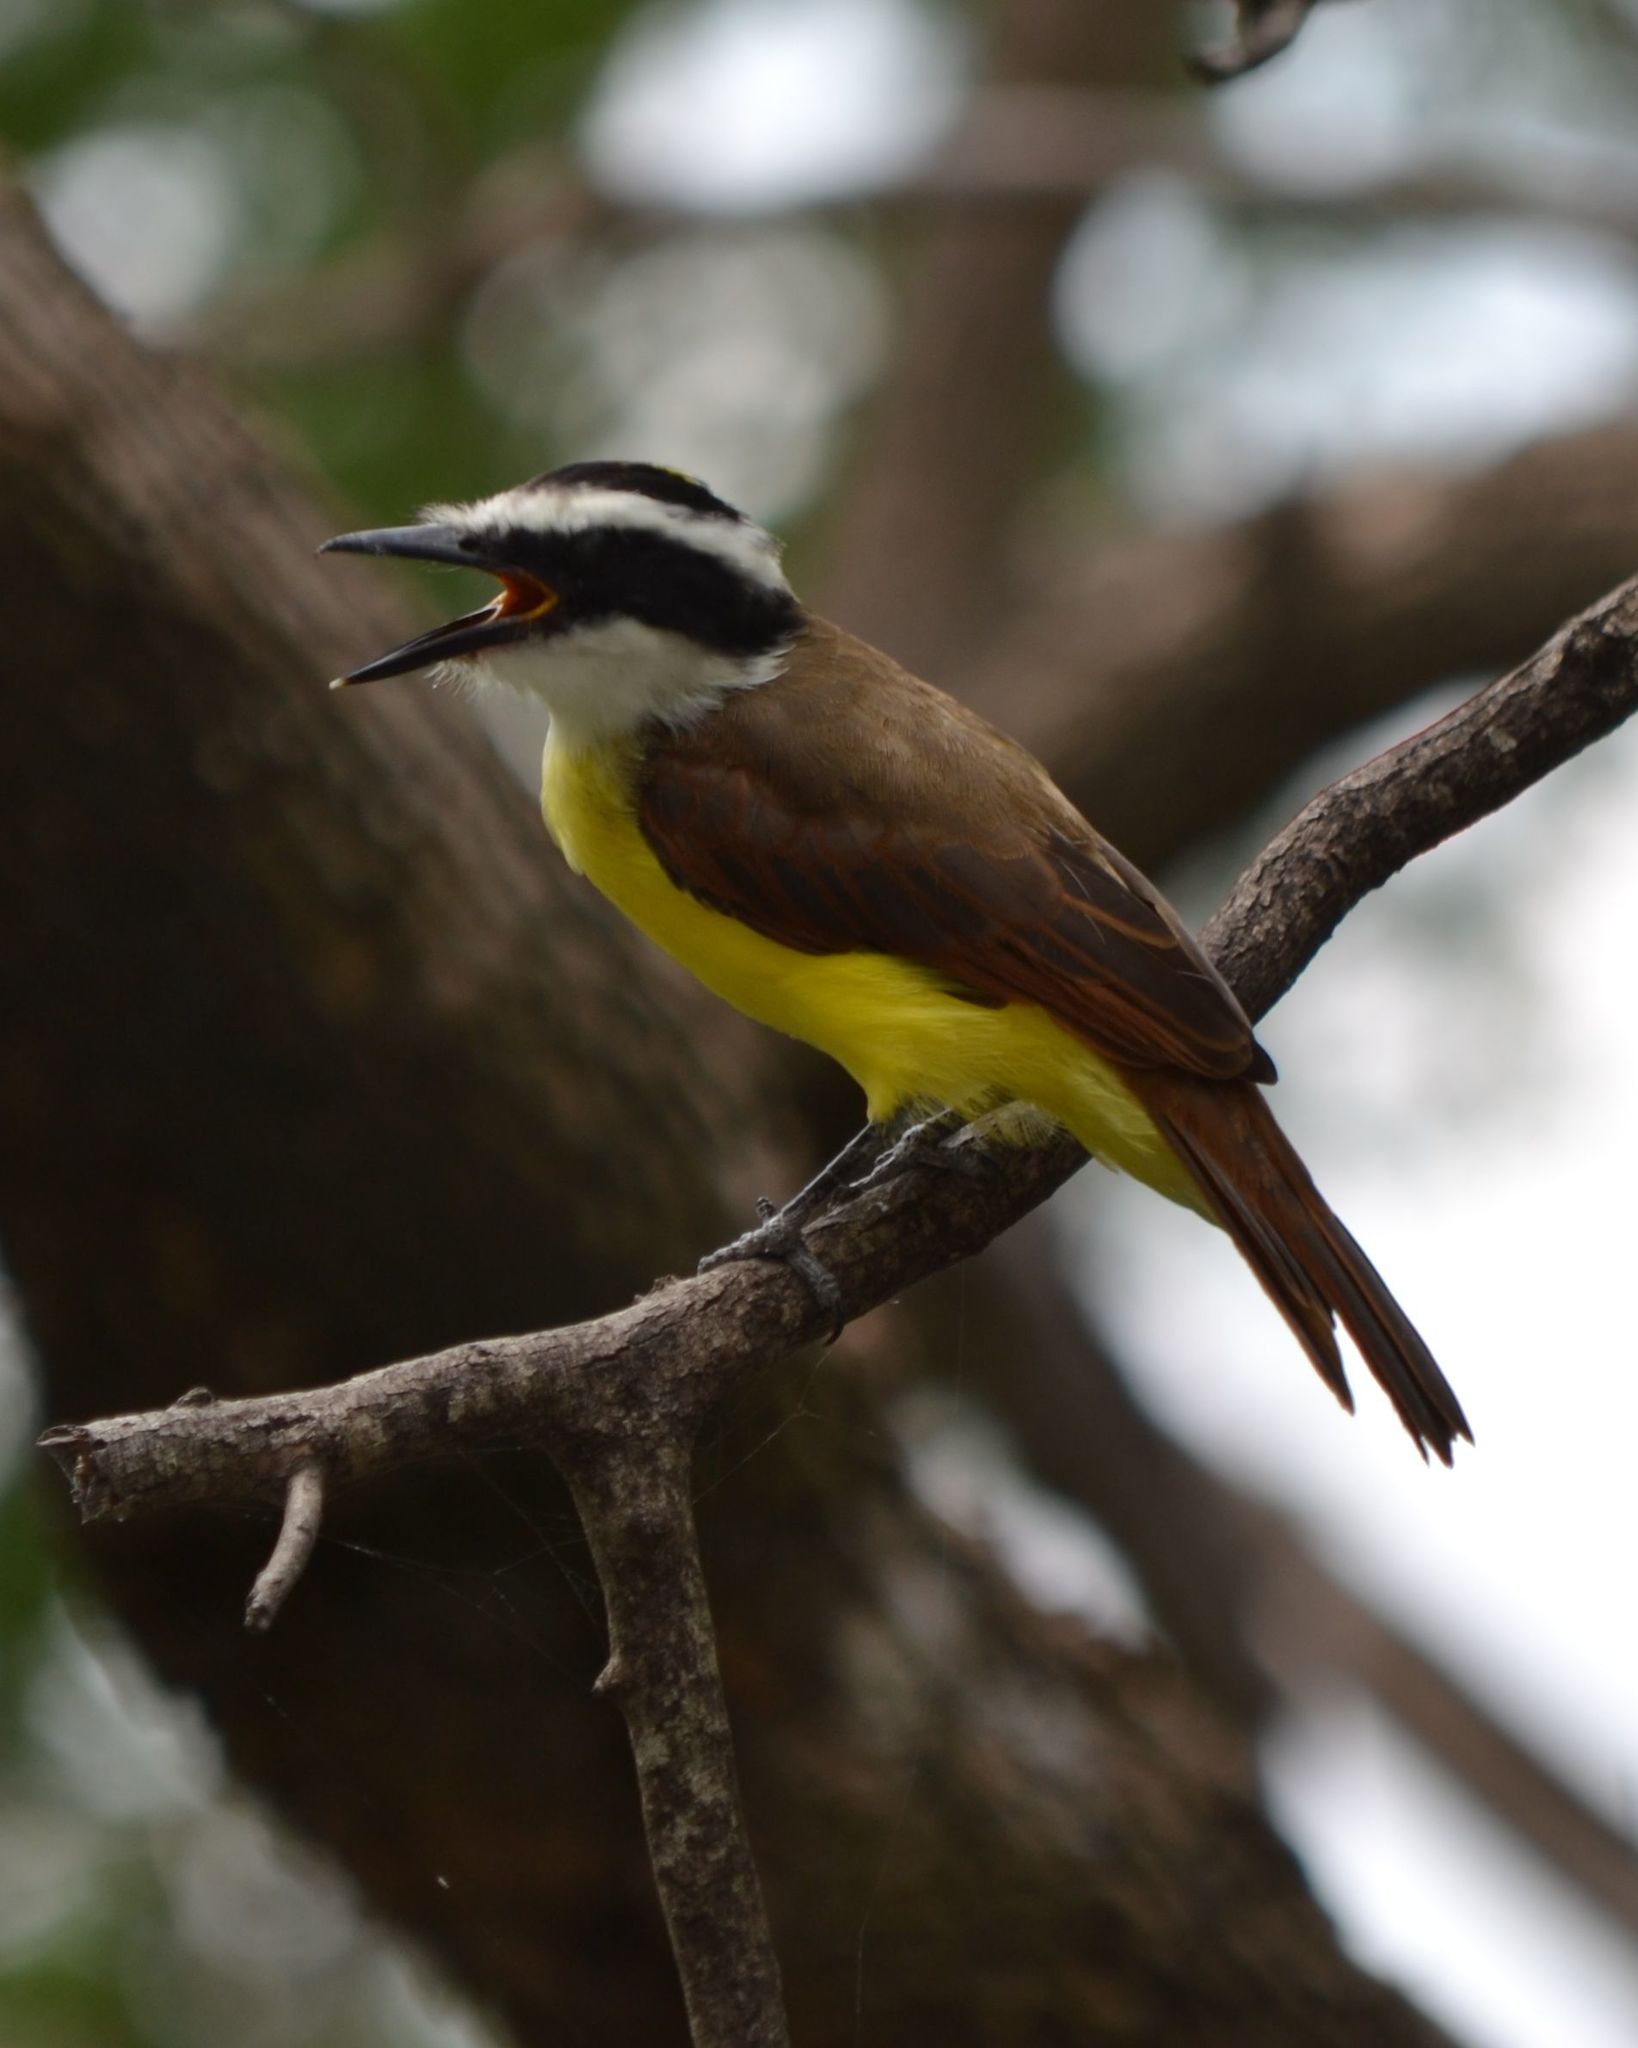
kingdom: Animalia
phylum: Chordata
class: Aves
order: Passeriformes
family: Tyrannidae
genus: Pitangus
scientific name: Pitangus sulphuratus
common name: Great kiskadee
